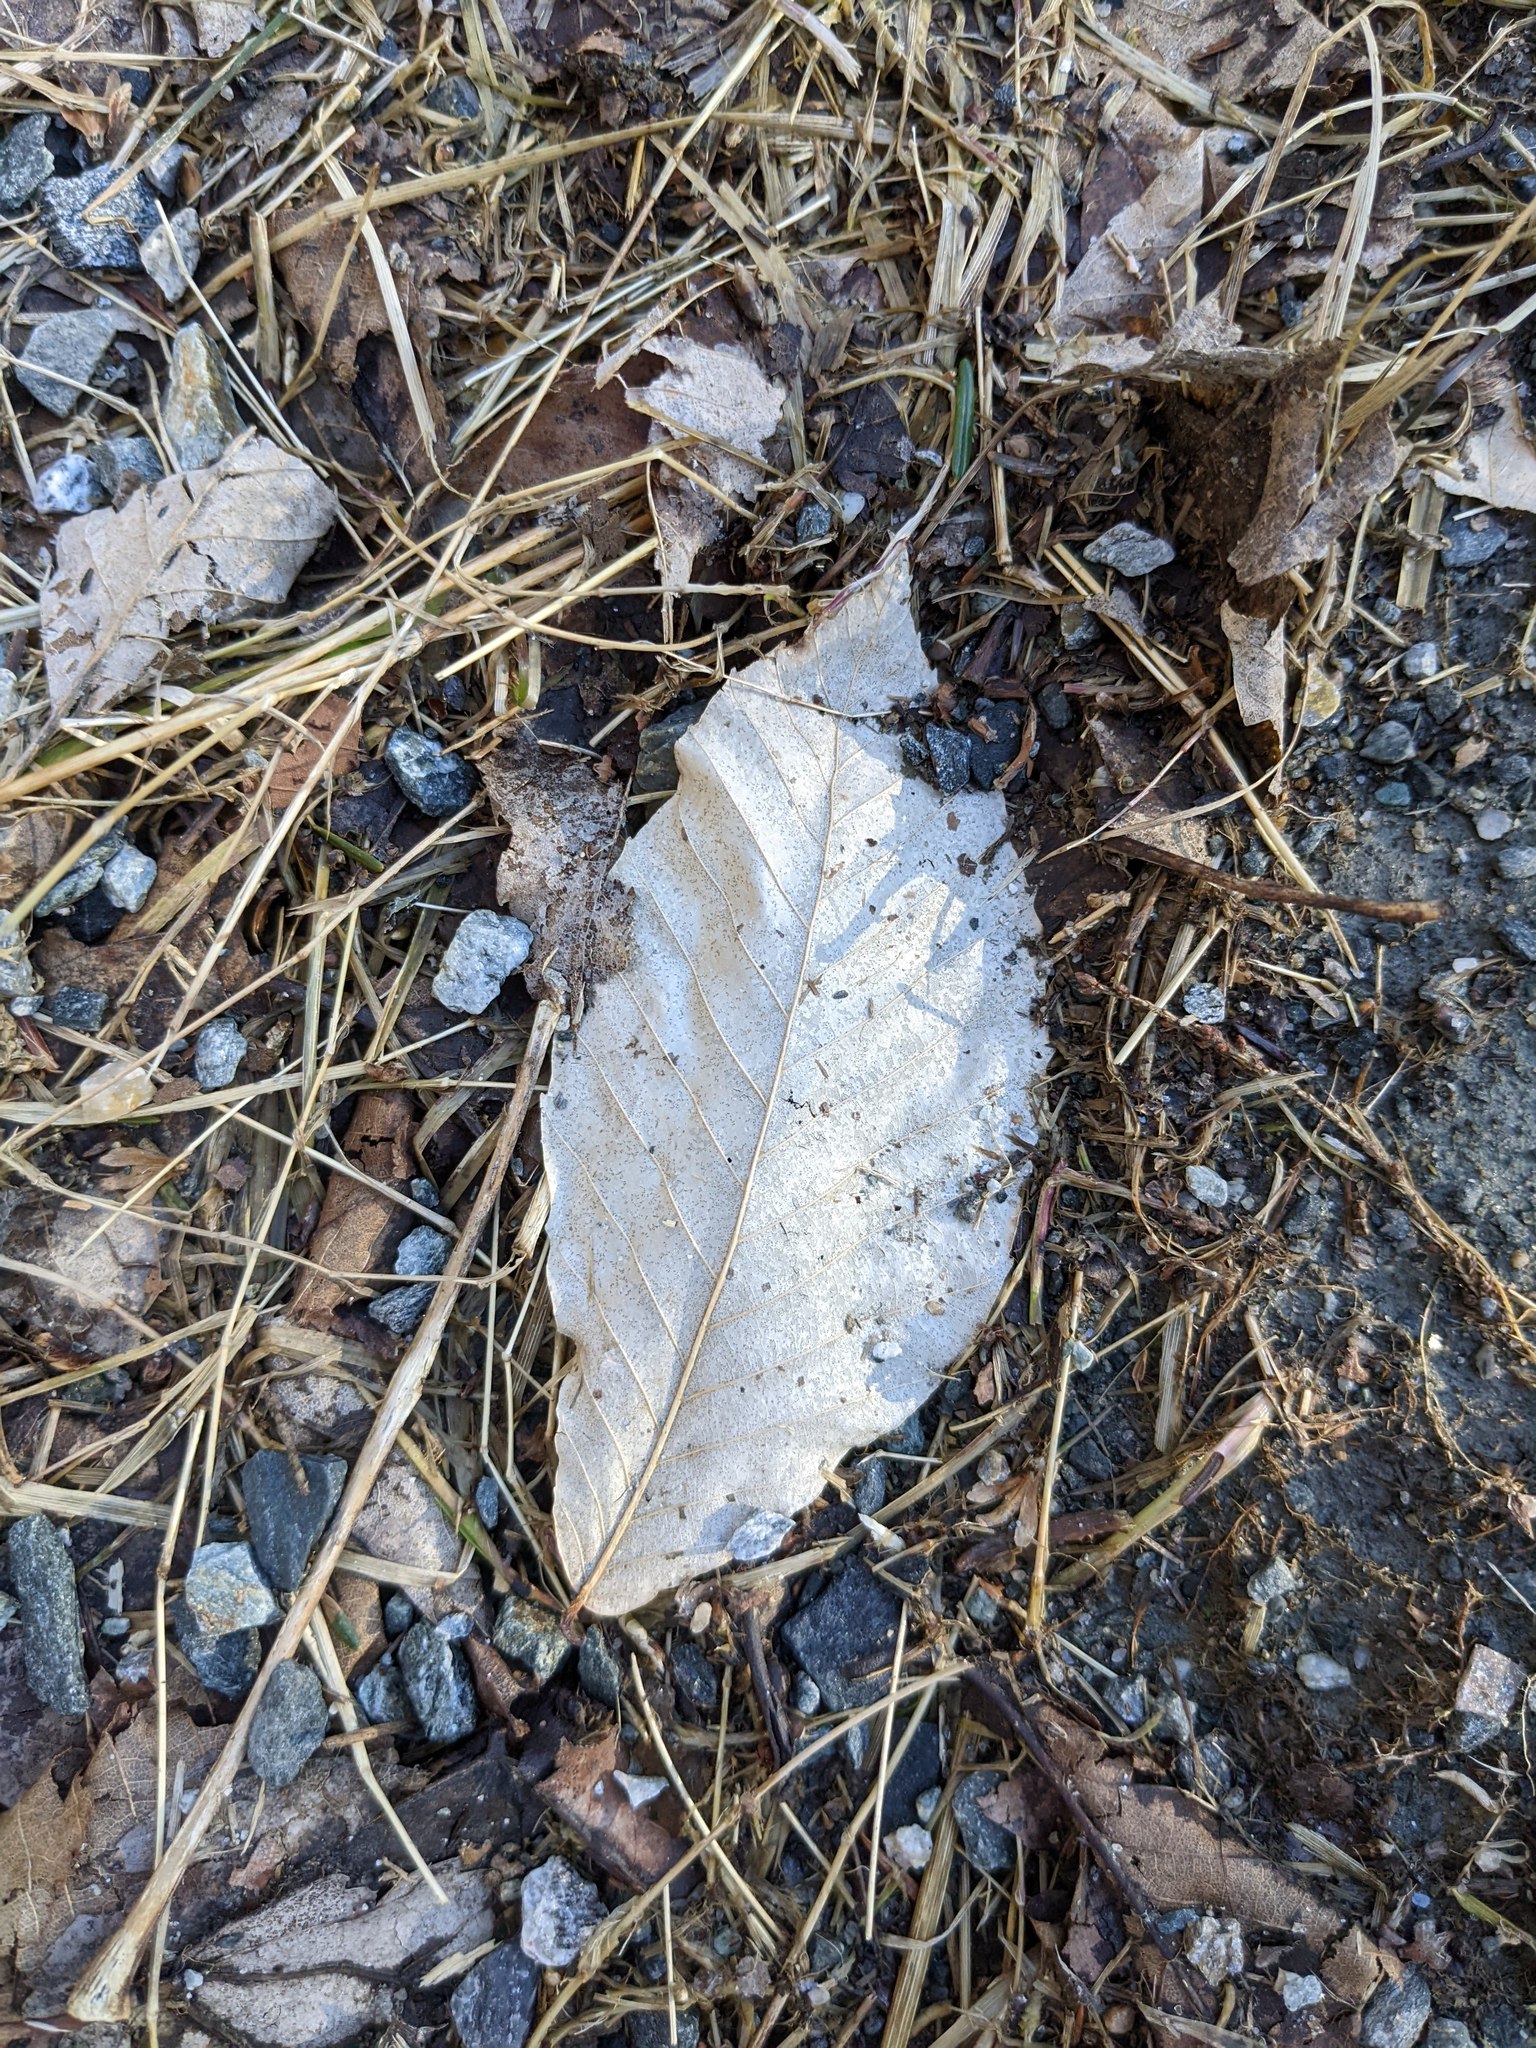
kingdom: Plantae
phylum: Tracheophyta
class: Magnoliopsida
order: Fagales
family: Fagaceae
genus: Fagus
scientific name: Fagus grandifolia
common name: American beech
